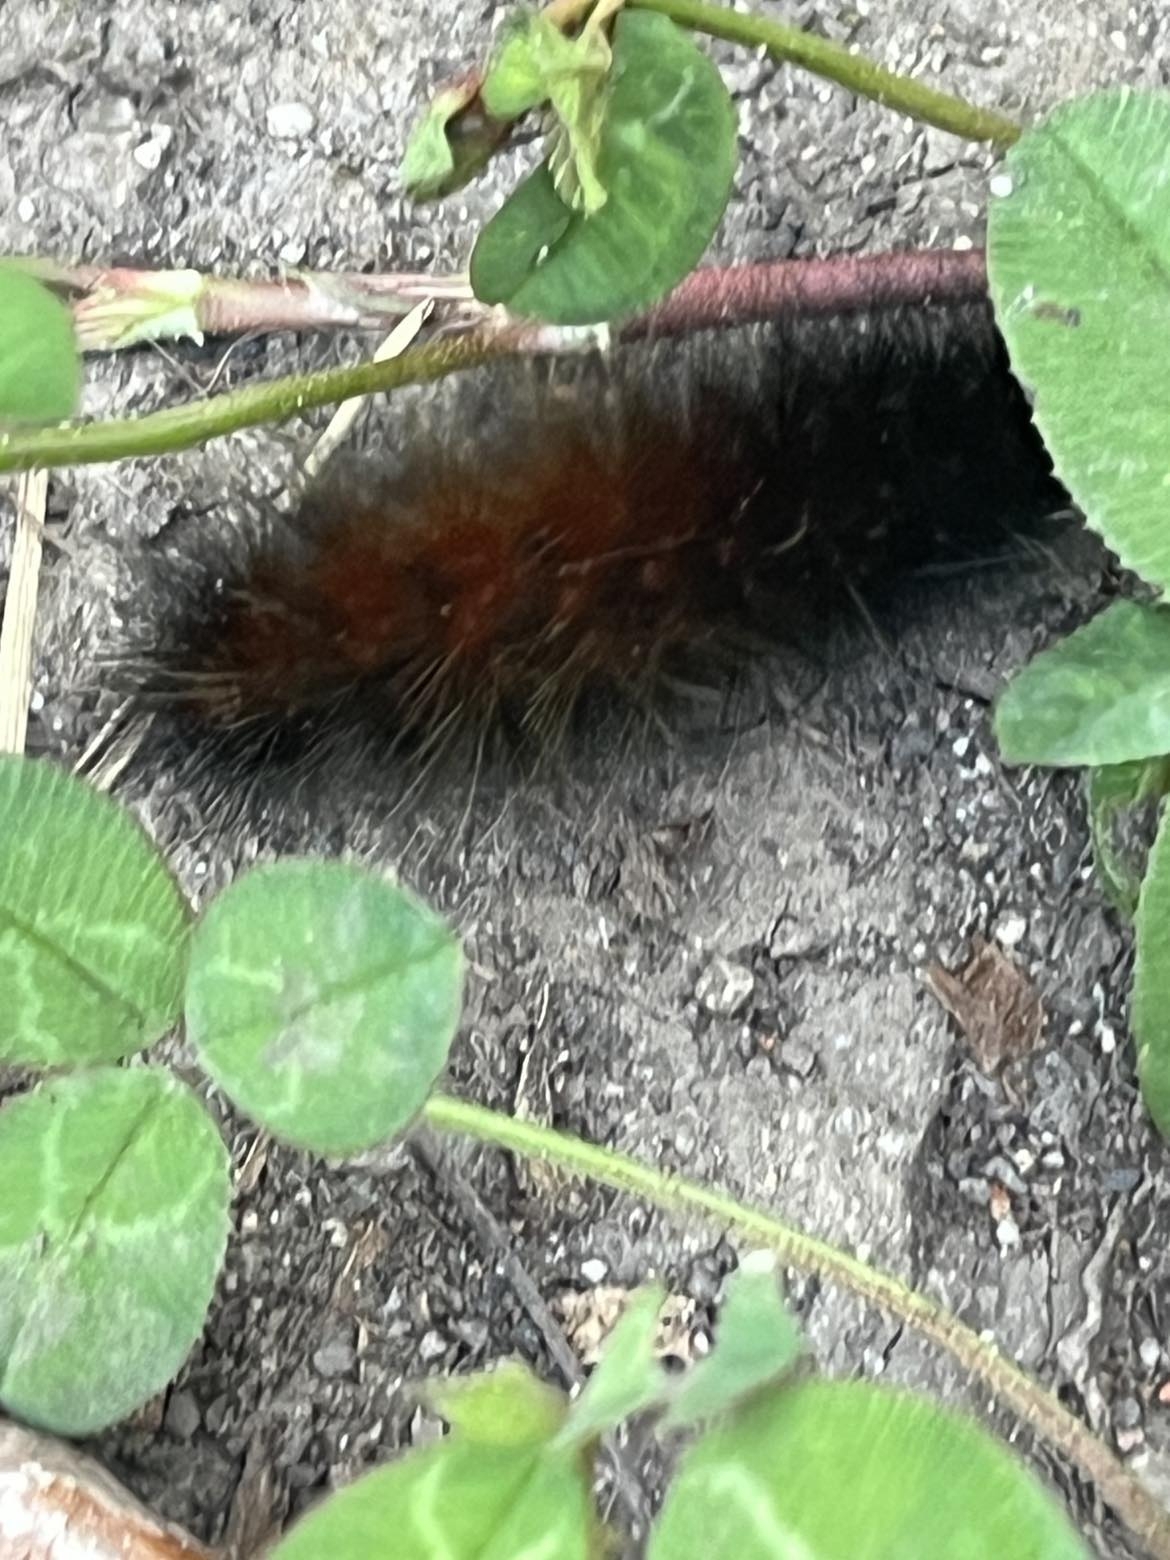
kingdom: Animalia
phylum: Arthropoda
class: Insecta
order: Lepidoptera
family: Erebidae
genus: Spilosoma
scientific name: Spilosoma virginica
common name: Virginia tiger moth
